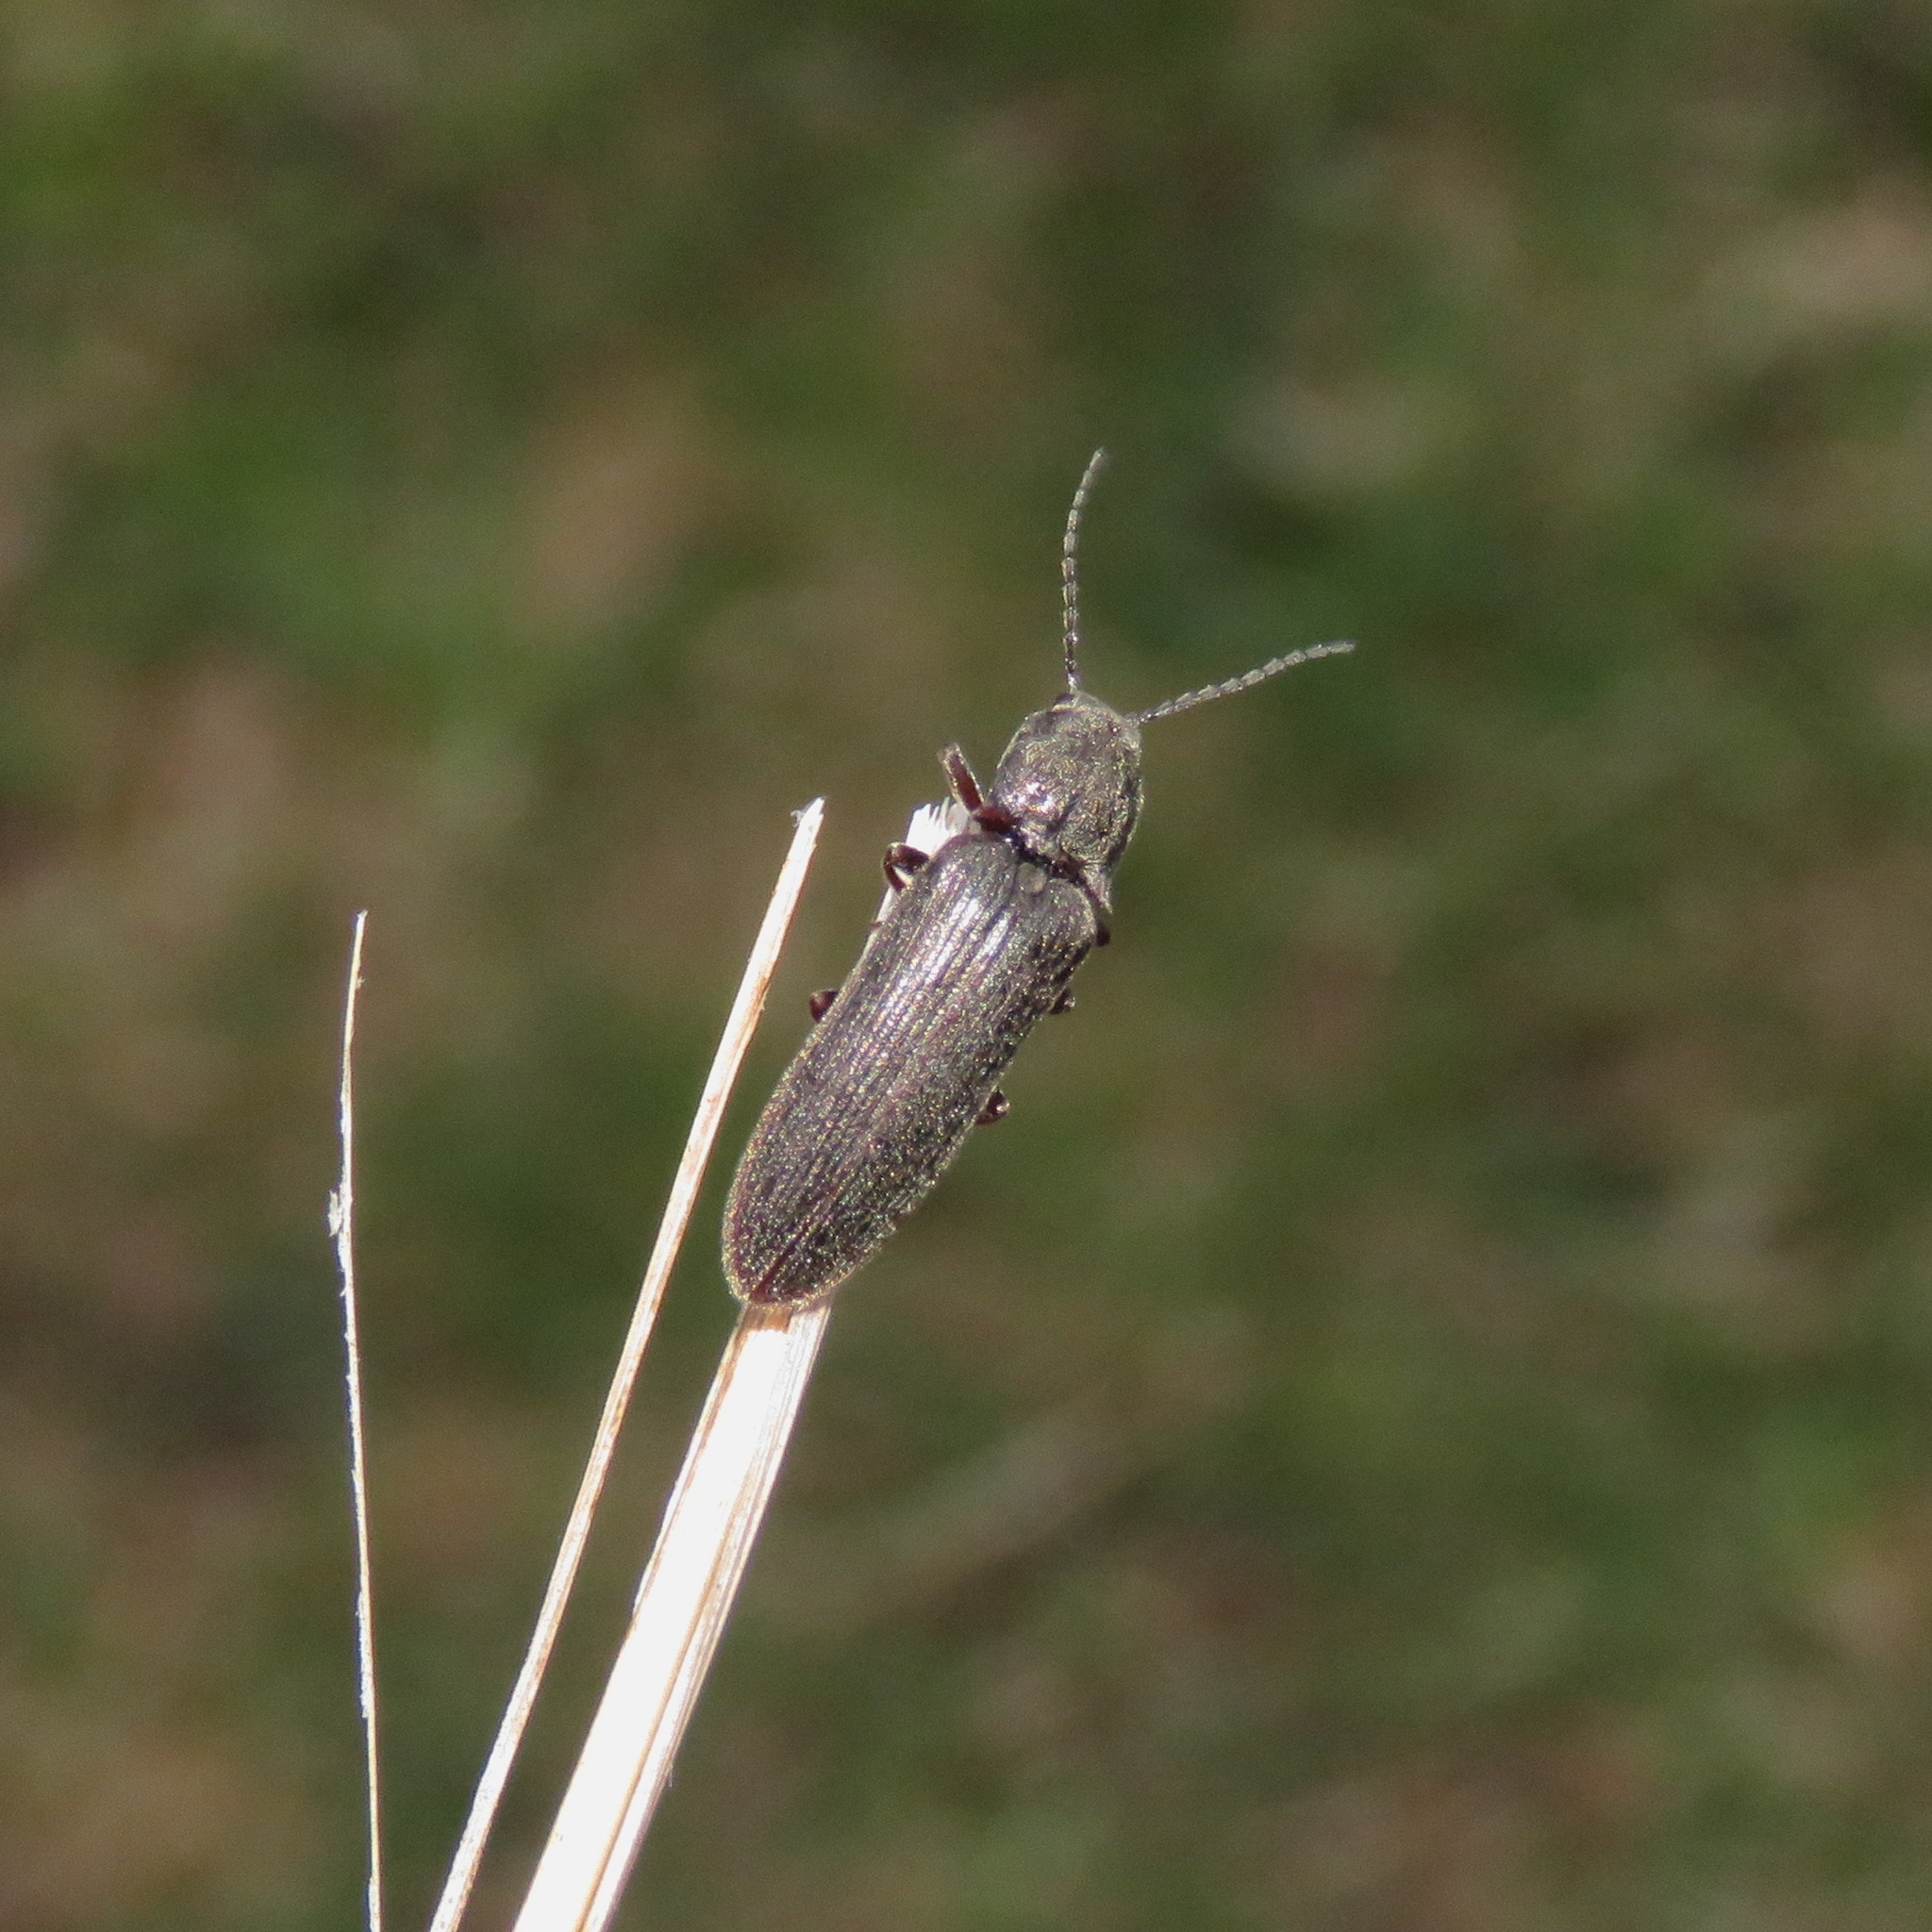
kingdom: Animalia
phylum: Arthropoda
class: Insecta
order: Coleoptera
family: Elateridae
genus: Sylvanelater
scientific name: Sylvanelater cylindriformis
